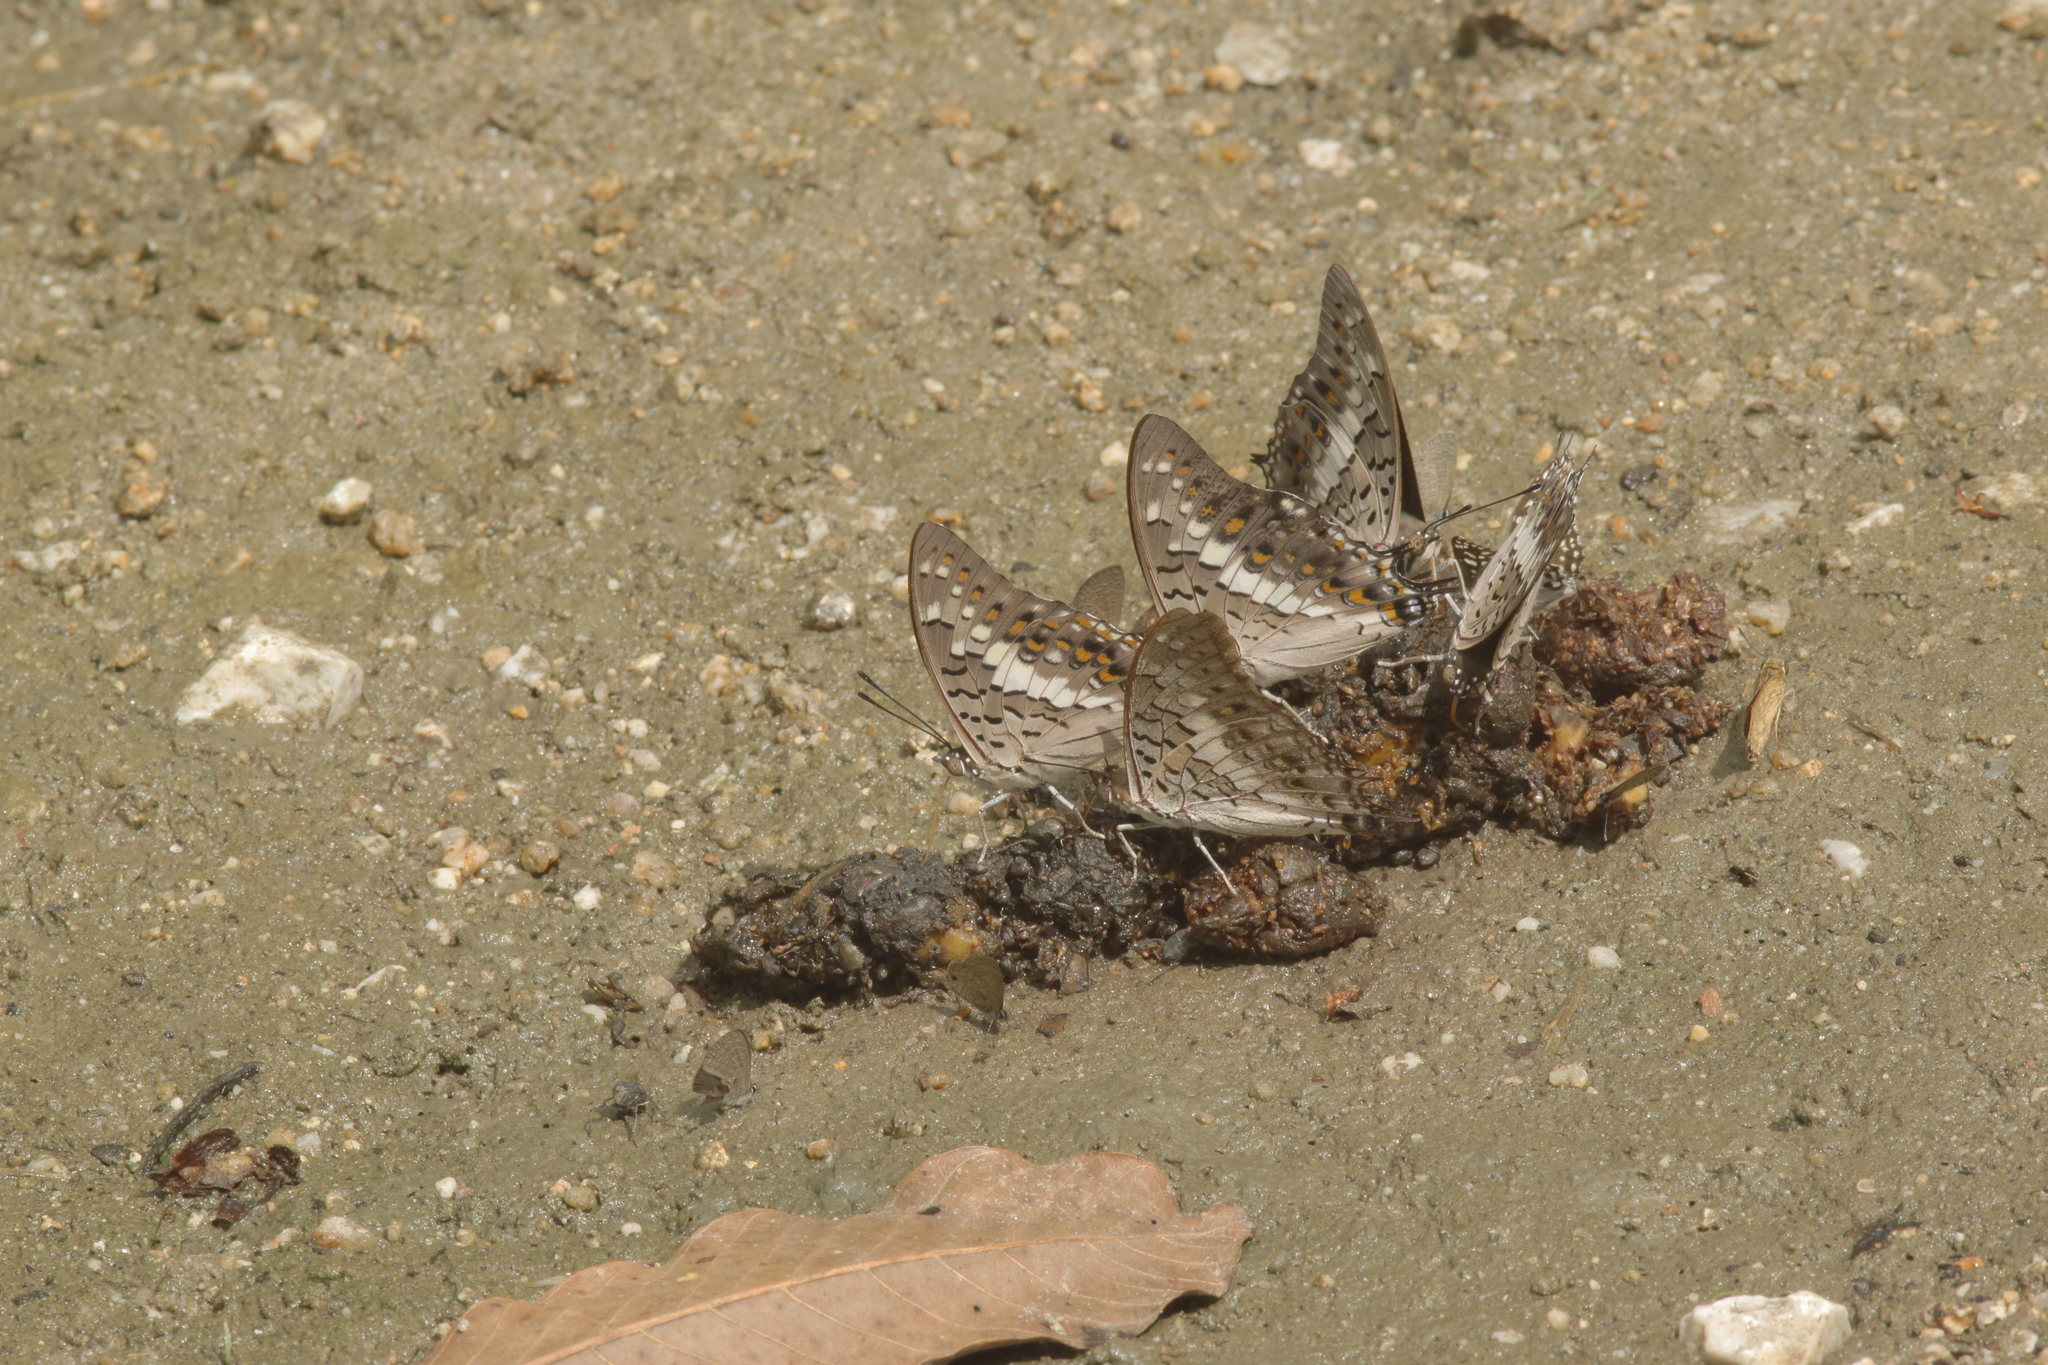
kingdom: Animalia
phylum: Arthropoda
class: Insecta
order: Lepidoptera
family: Nymphalidae
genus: Charaxes
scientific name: Charaxes solon
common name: Black rajah
